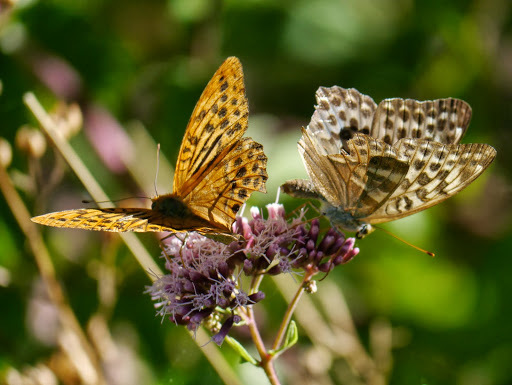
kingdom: Animalia
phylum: Arthropoda
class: Insecta
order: Lepidoptera
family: Nymphalidae
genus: Argynnis
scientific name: Argynnis paphia
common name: Silver-washed fritillary
